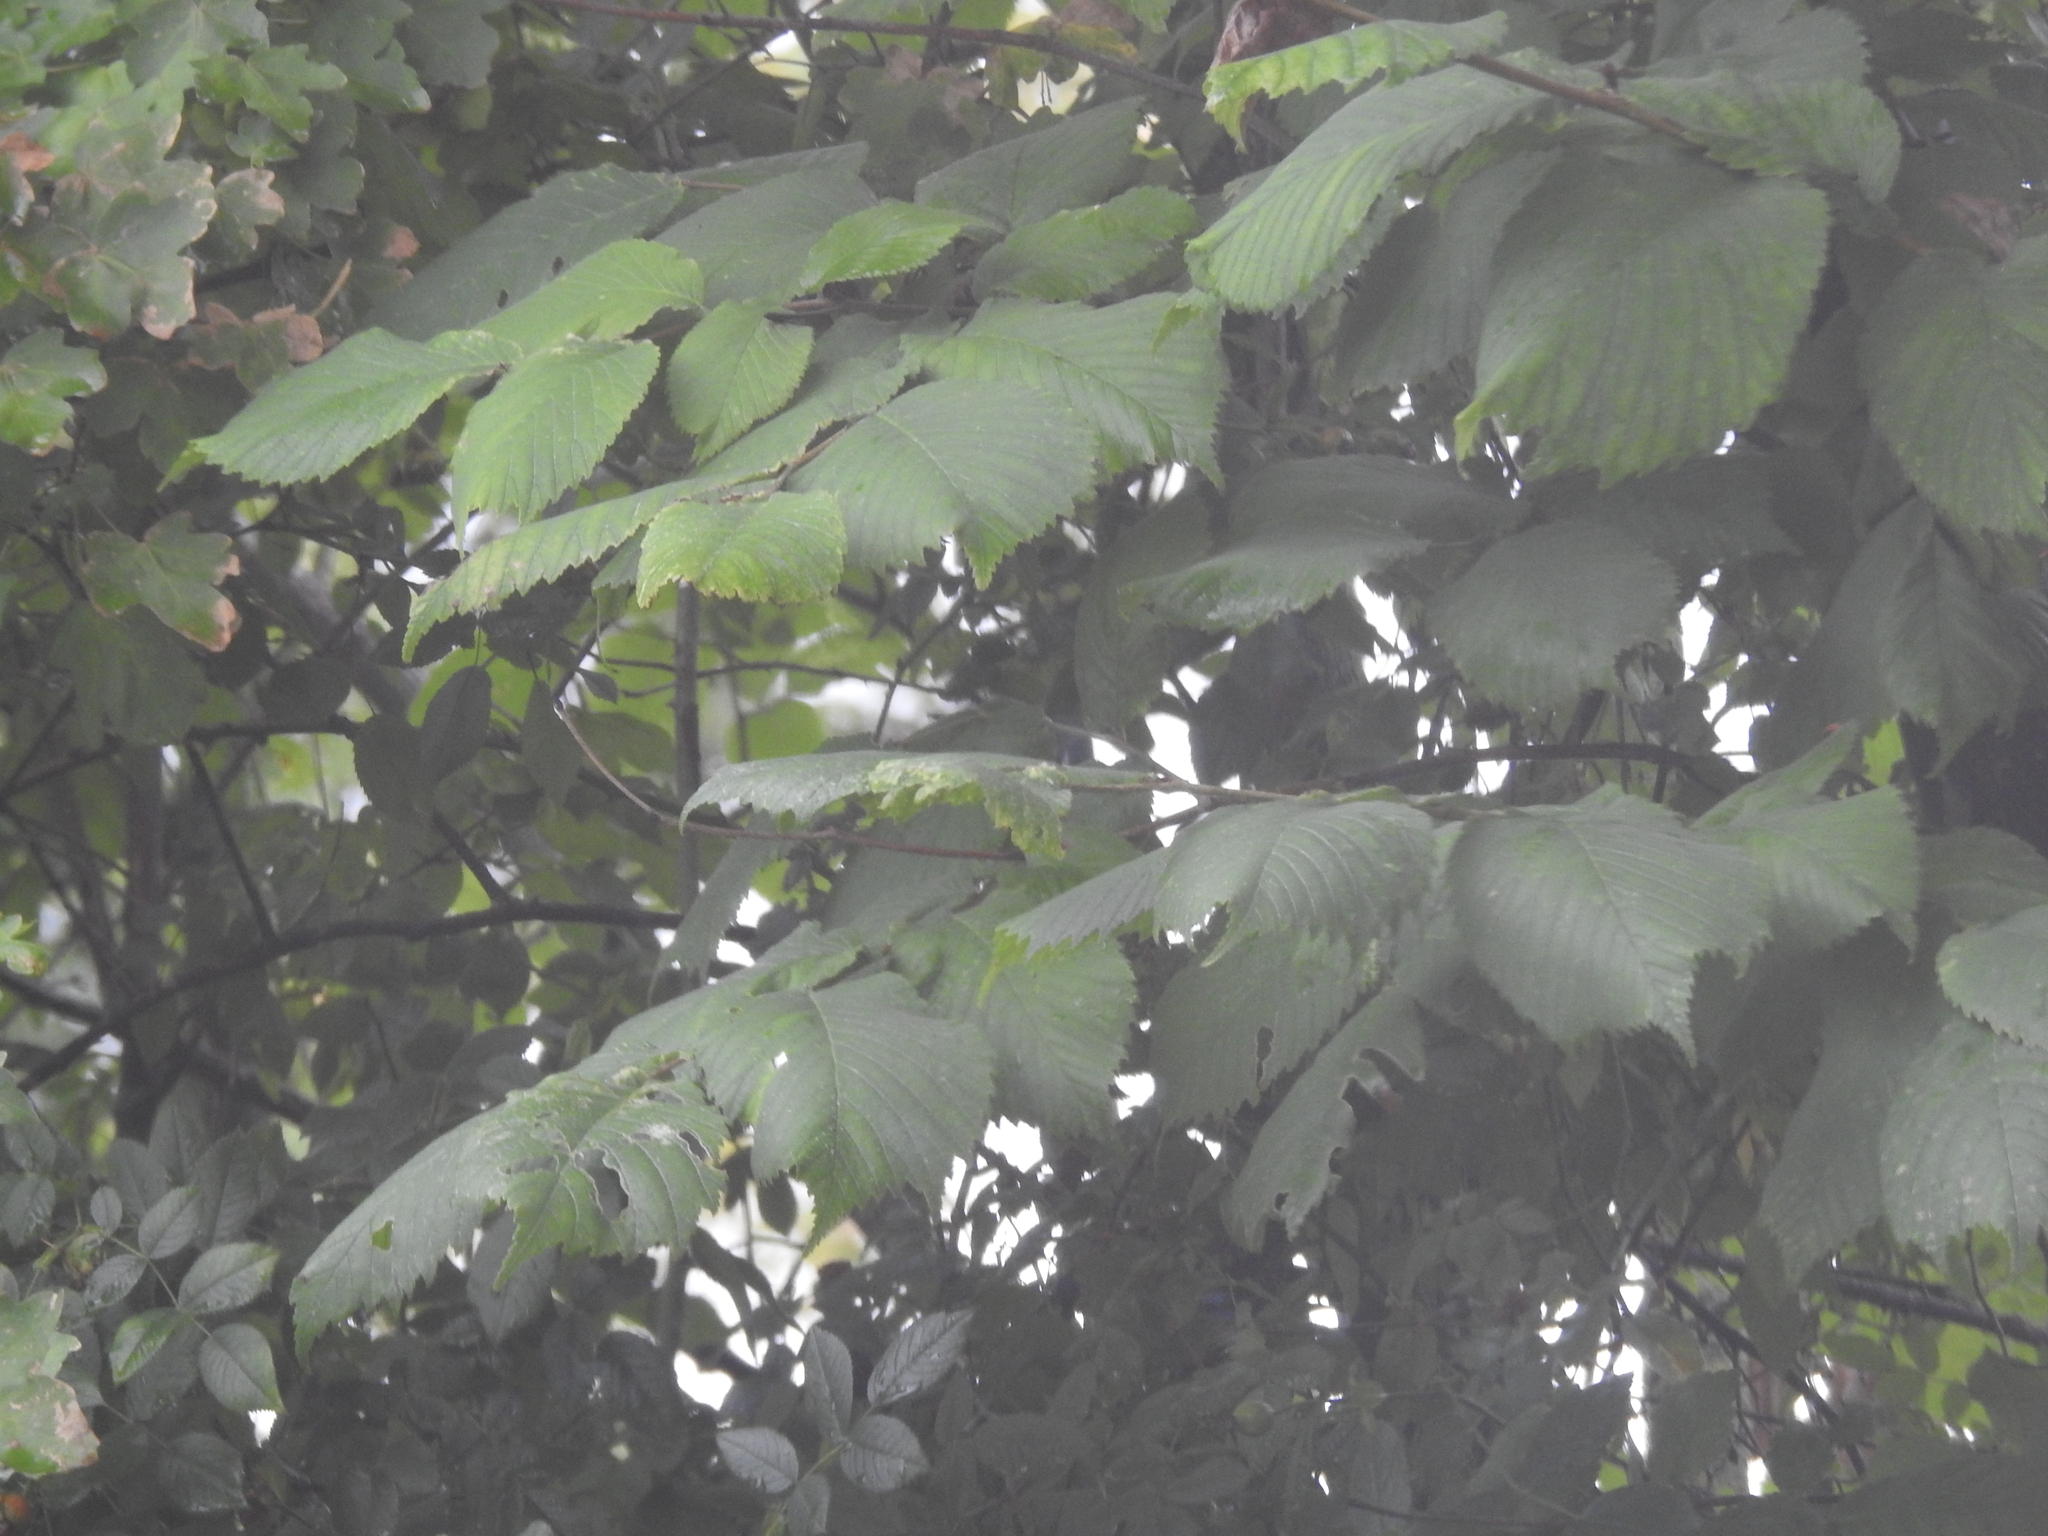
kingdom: Plantae
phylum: Tracheophyta
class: Magnoliopsida
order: Rosales
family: Ulmaceae
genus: Ulmus
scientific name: Ulmus glabra
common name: Wych elm
